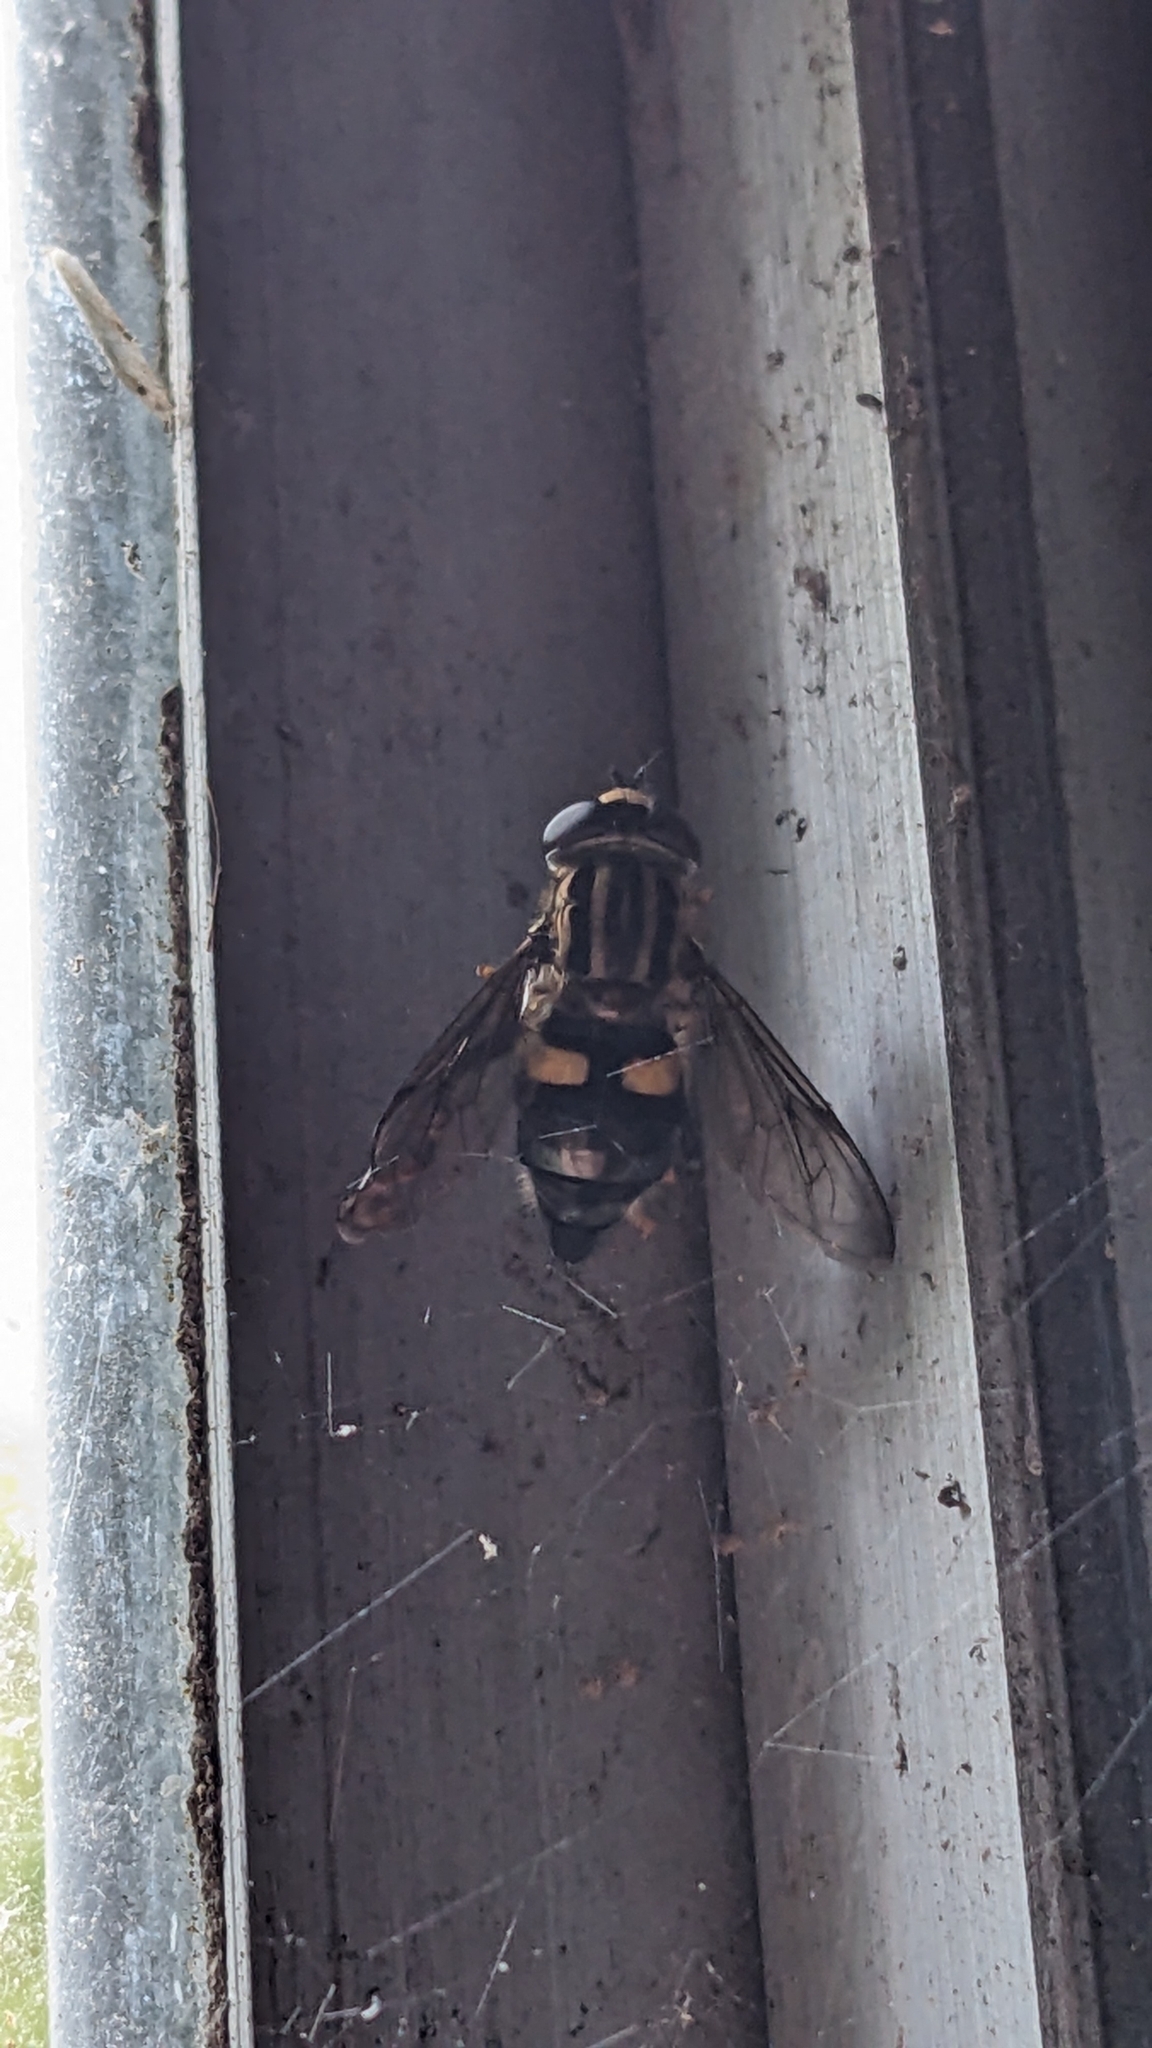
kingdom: Animalia
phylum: Arthropoda
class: Insecta
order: Diptera
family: Syrphidae
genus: Helophilus
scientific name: Helophilus seelandicus
